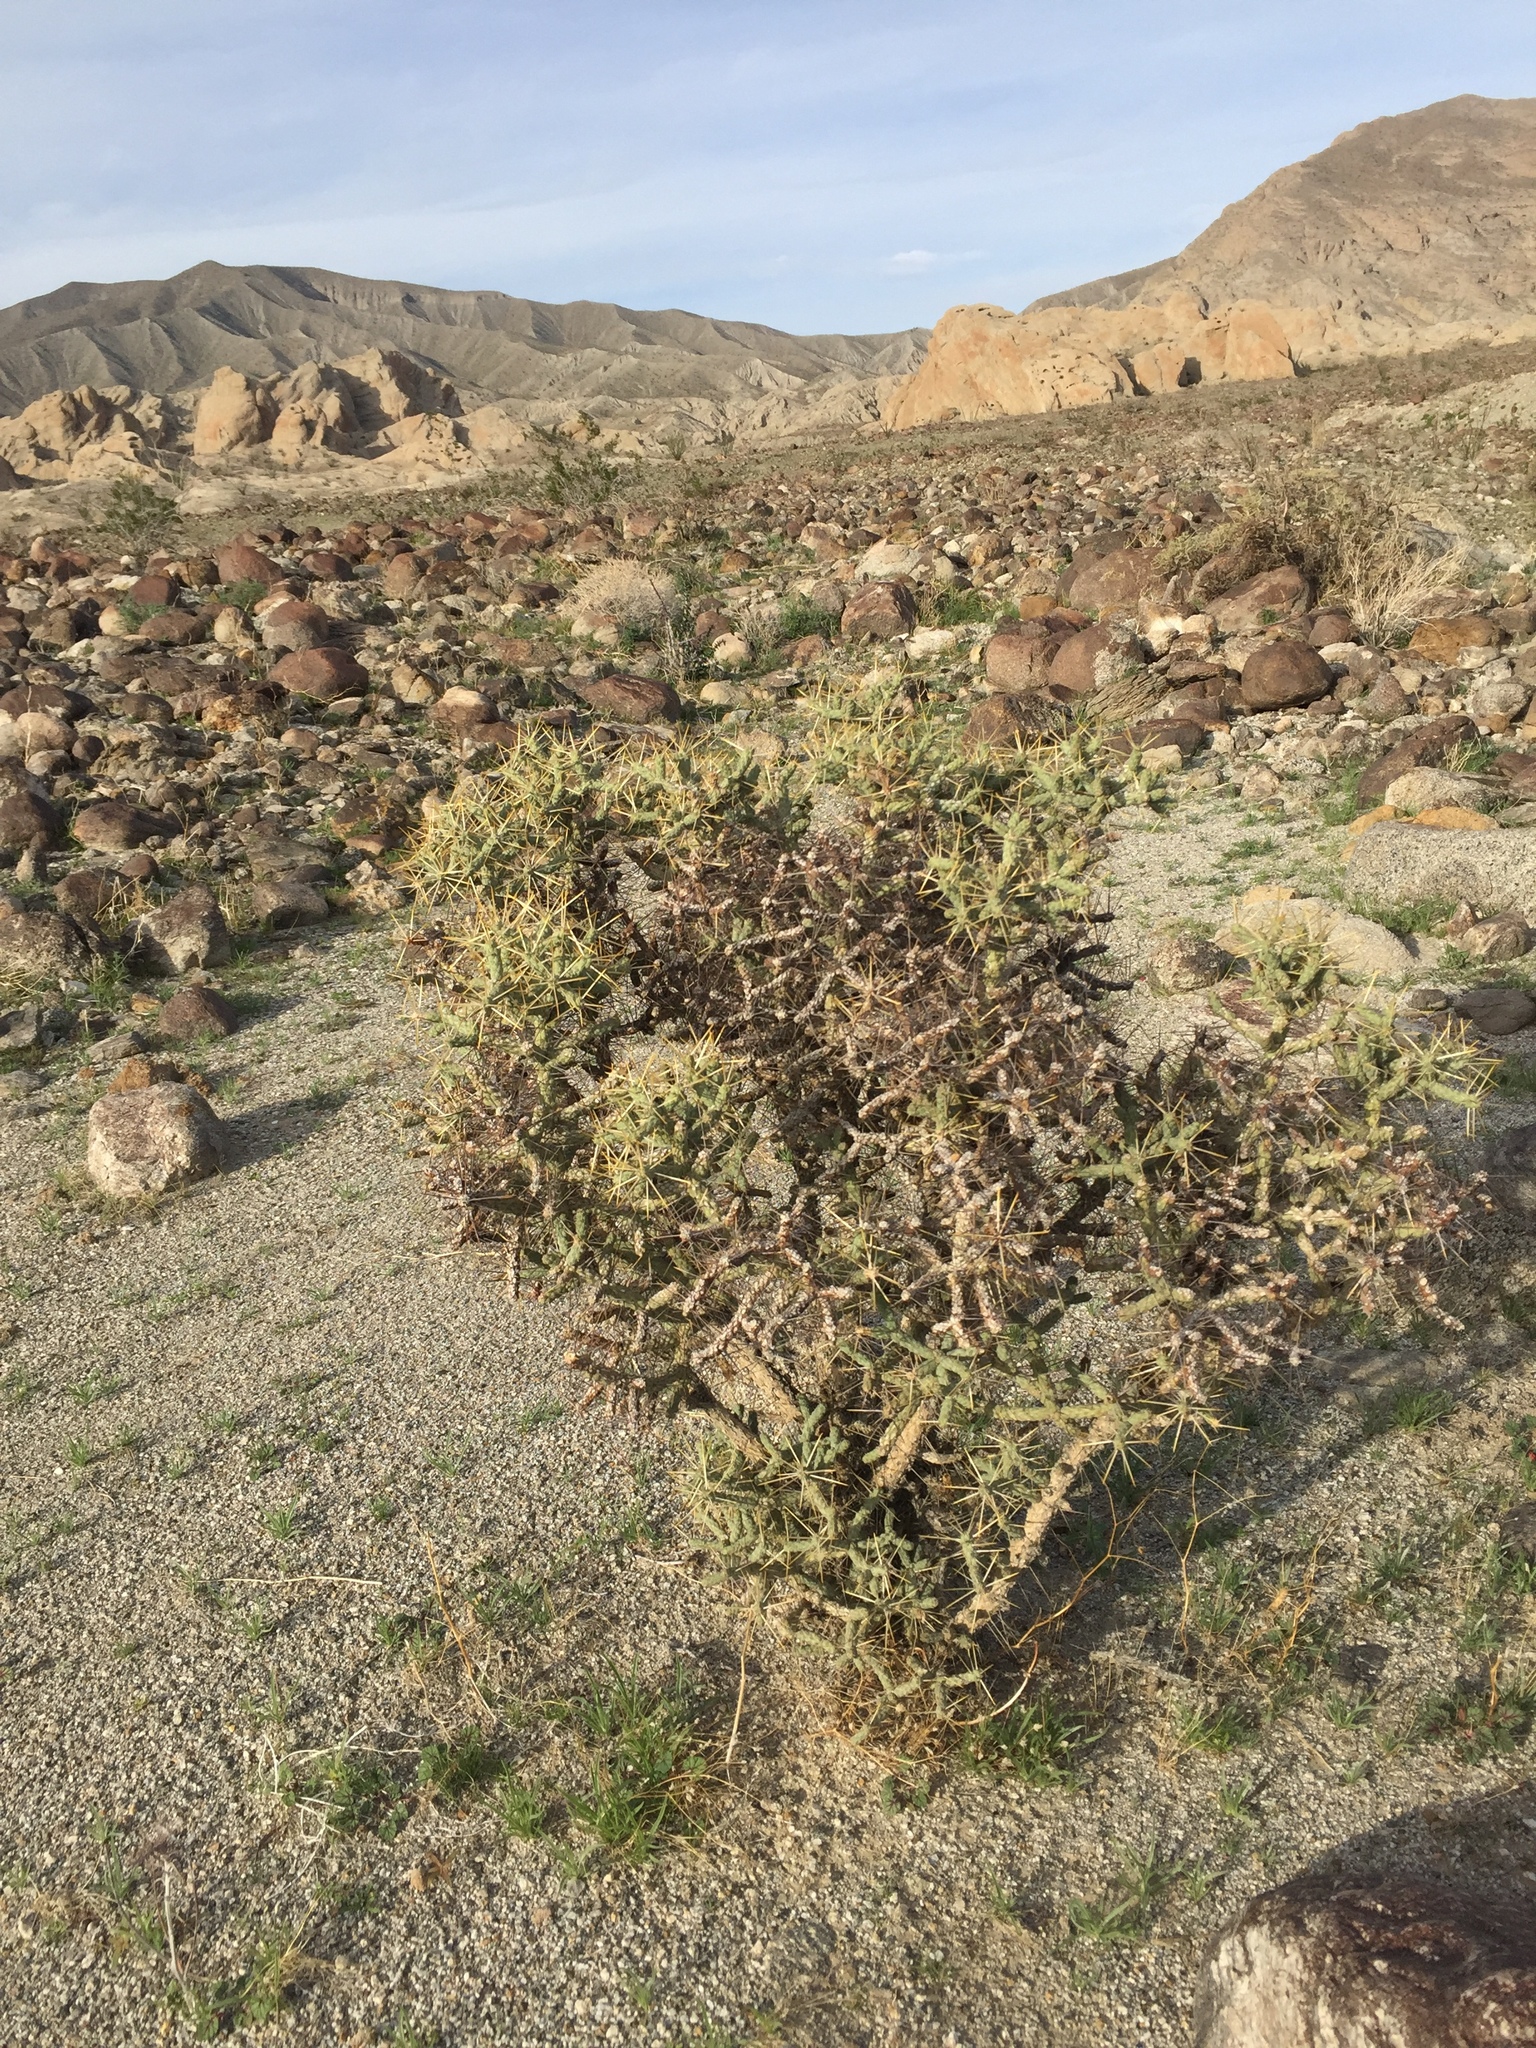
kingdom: Plantae
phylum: Tracheophyta
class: Magnoliopsida
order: Caryophyllales
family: Cactaceae
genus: Cylindropuntia
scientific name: Cylindropuntia ramosissima
